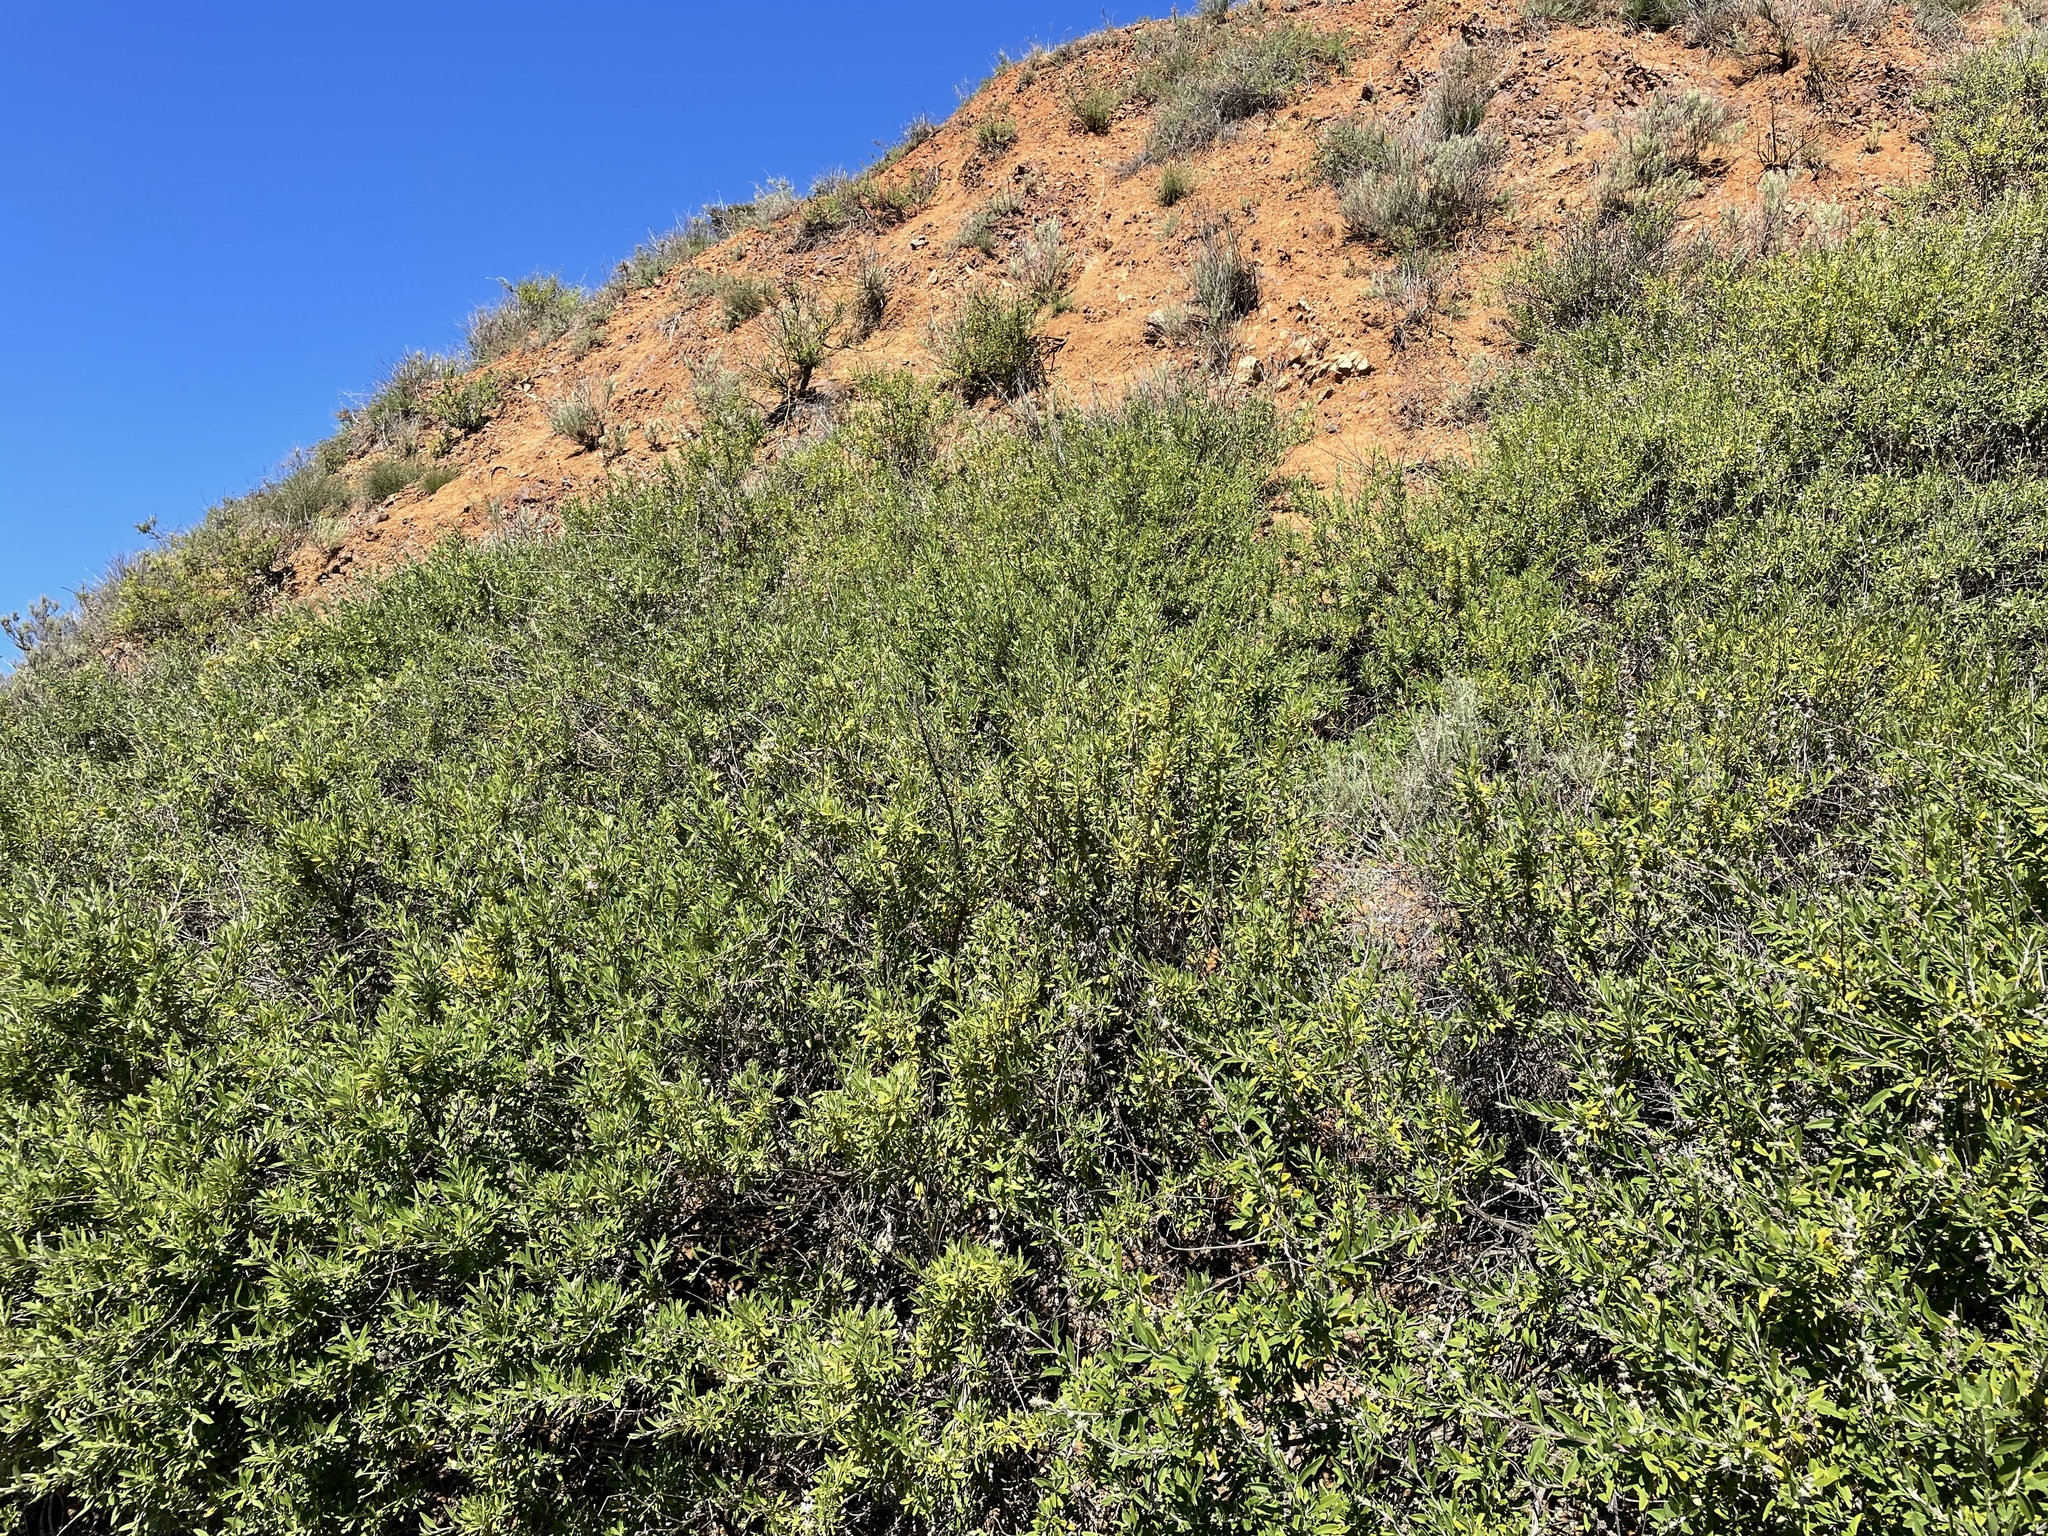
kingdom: Plantae
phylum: Tracheophyta
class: Magnoliopsida
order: Lamiales
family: Lamiaceae
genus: Salvia
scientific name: Salvia mellifera
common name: Black sage
